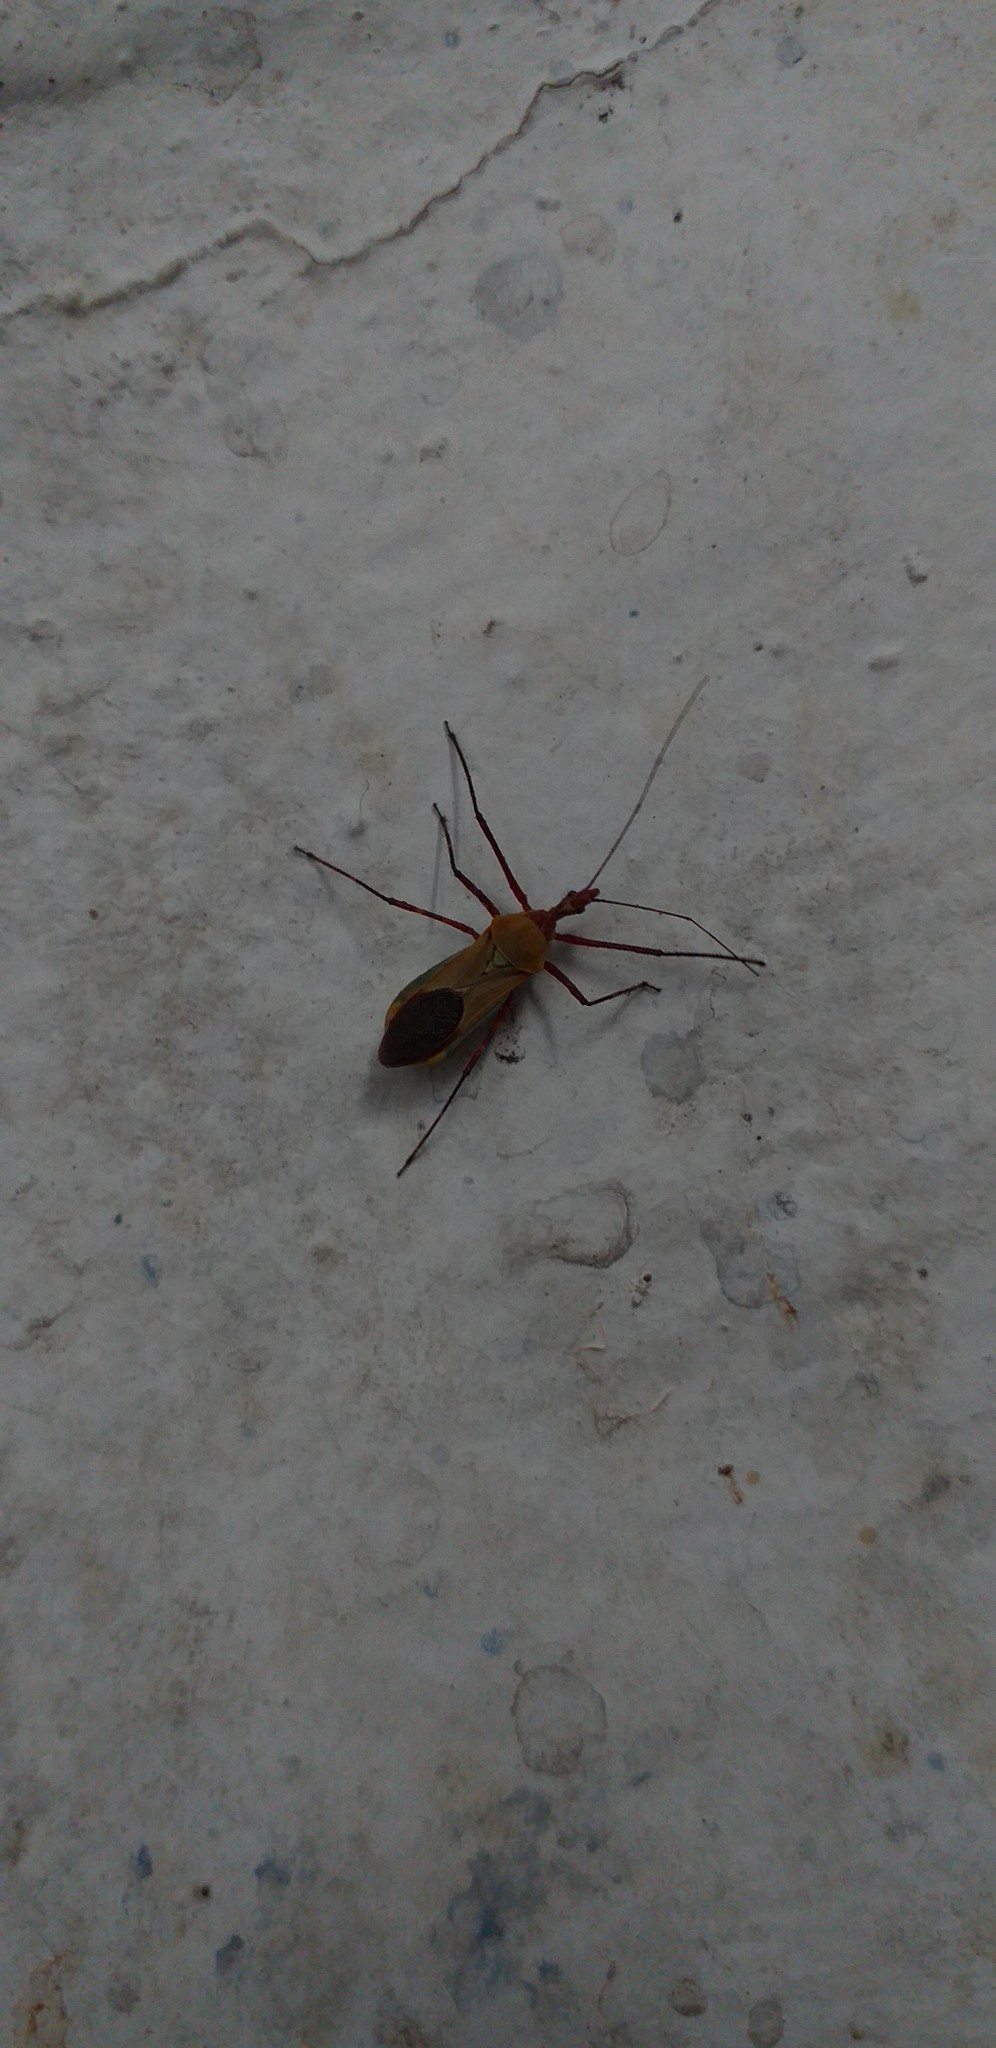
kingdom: Animalia
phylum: Arthropoda
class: Insecta
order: Hemiptera
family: Reduviidae
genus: Zelus
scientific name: Zelus laticornis
